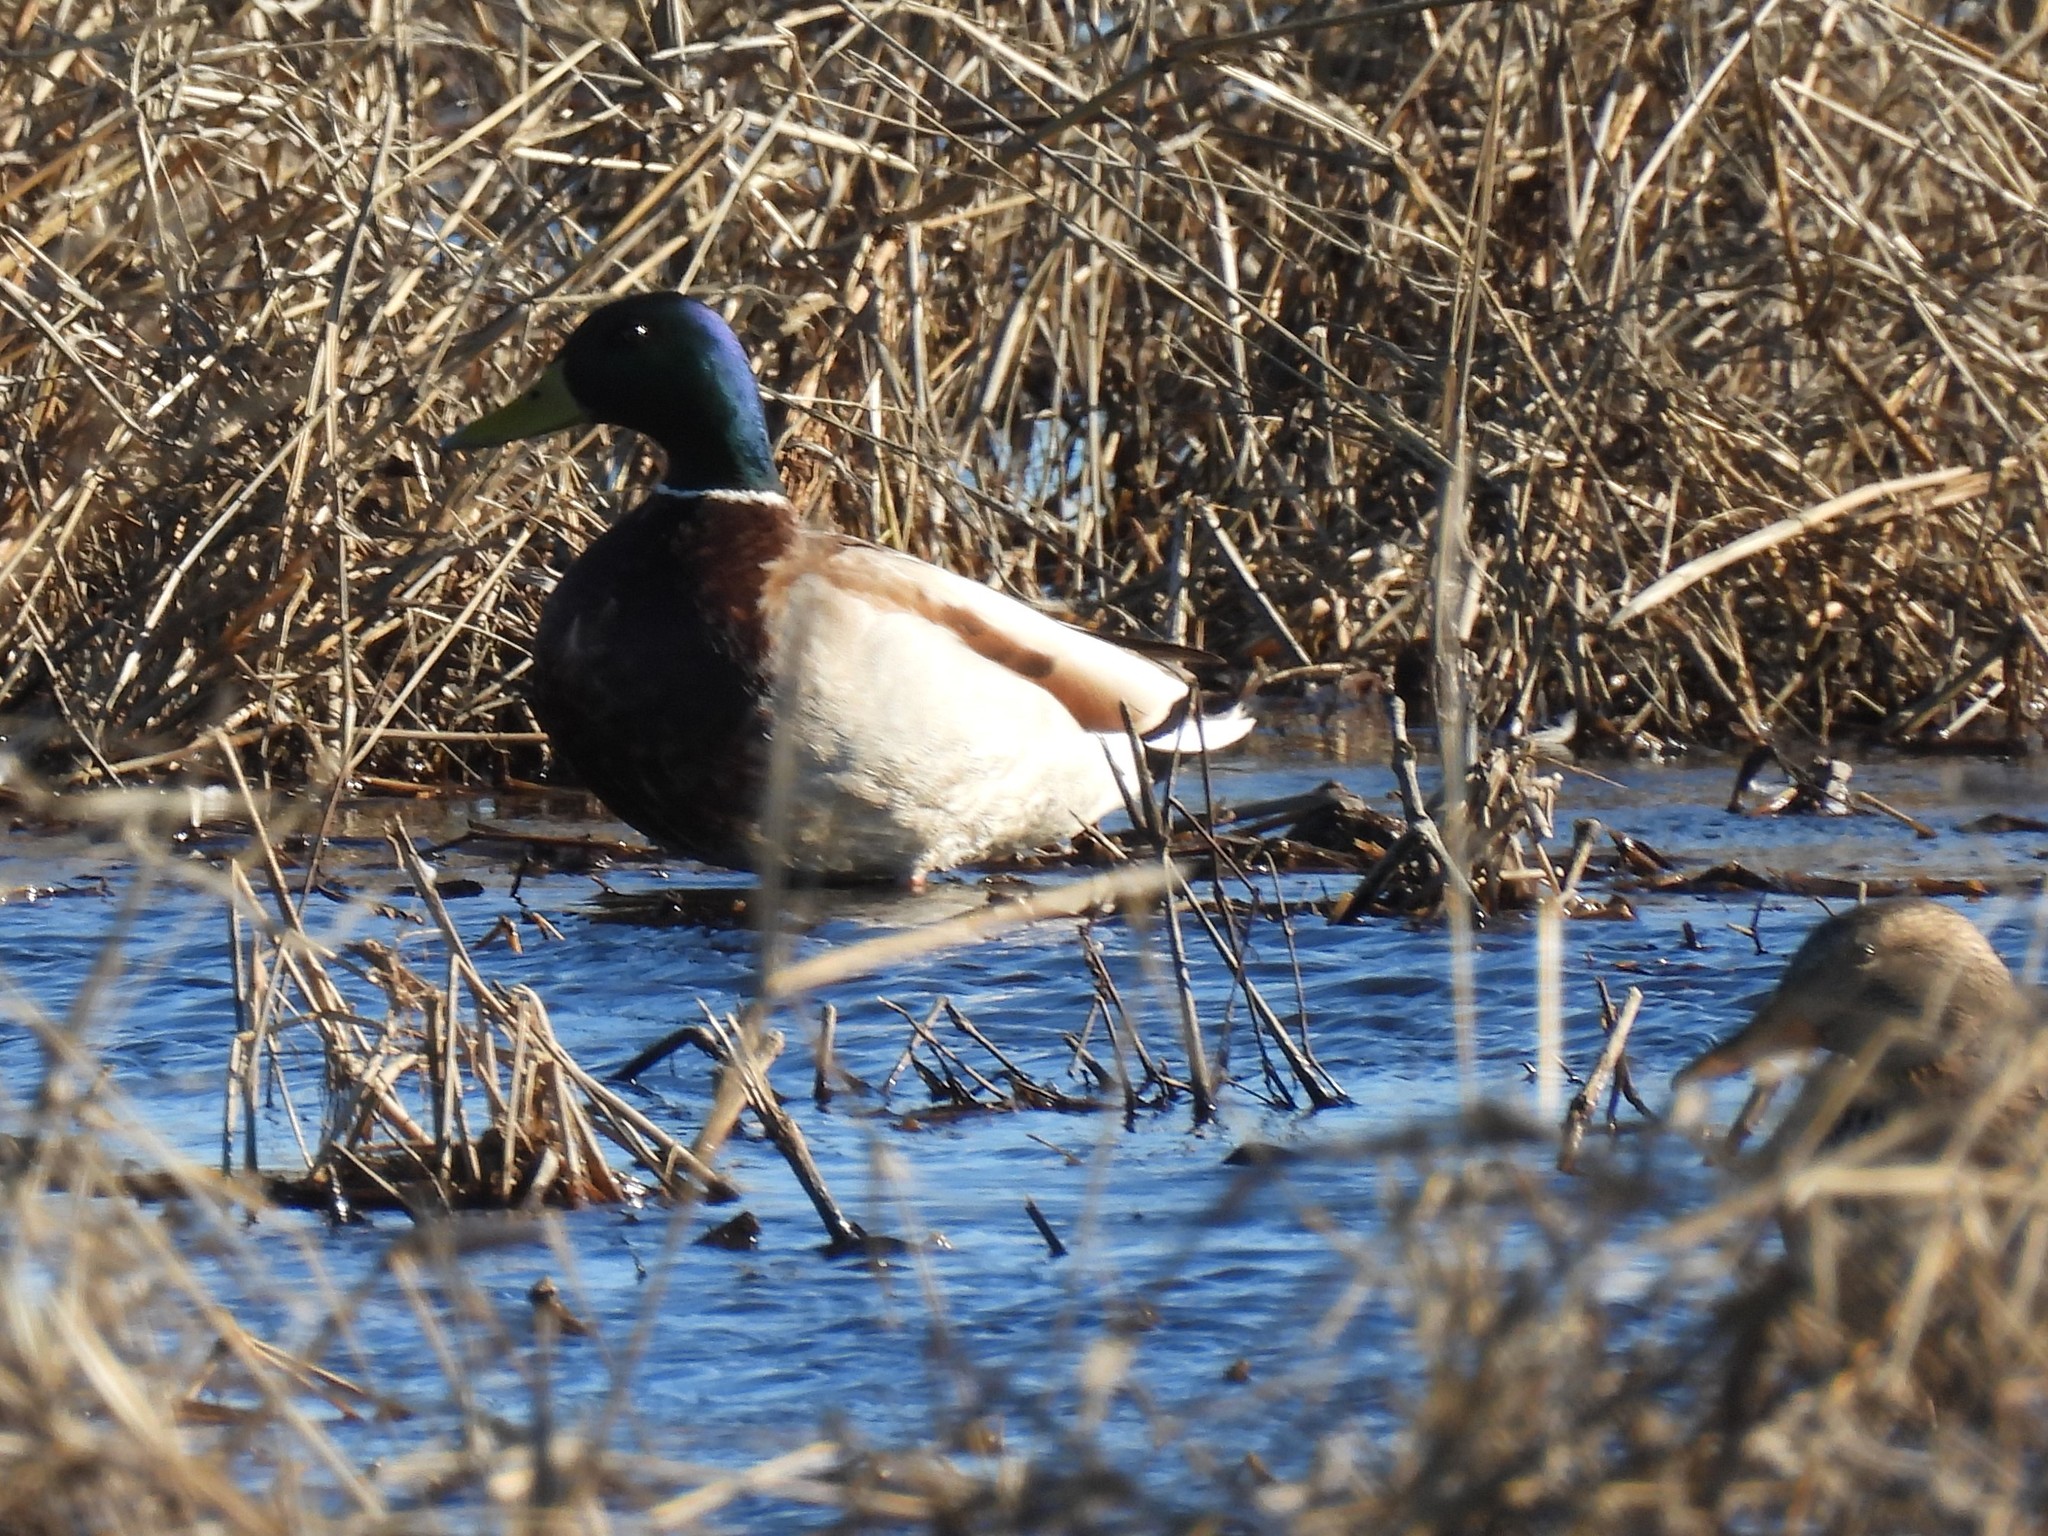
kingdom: Animalia
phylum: Chordata
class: Aves
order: Anseriformes
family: Anatidae
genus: Anas
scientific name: Anas platyrhynchos
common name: Mallard
